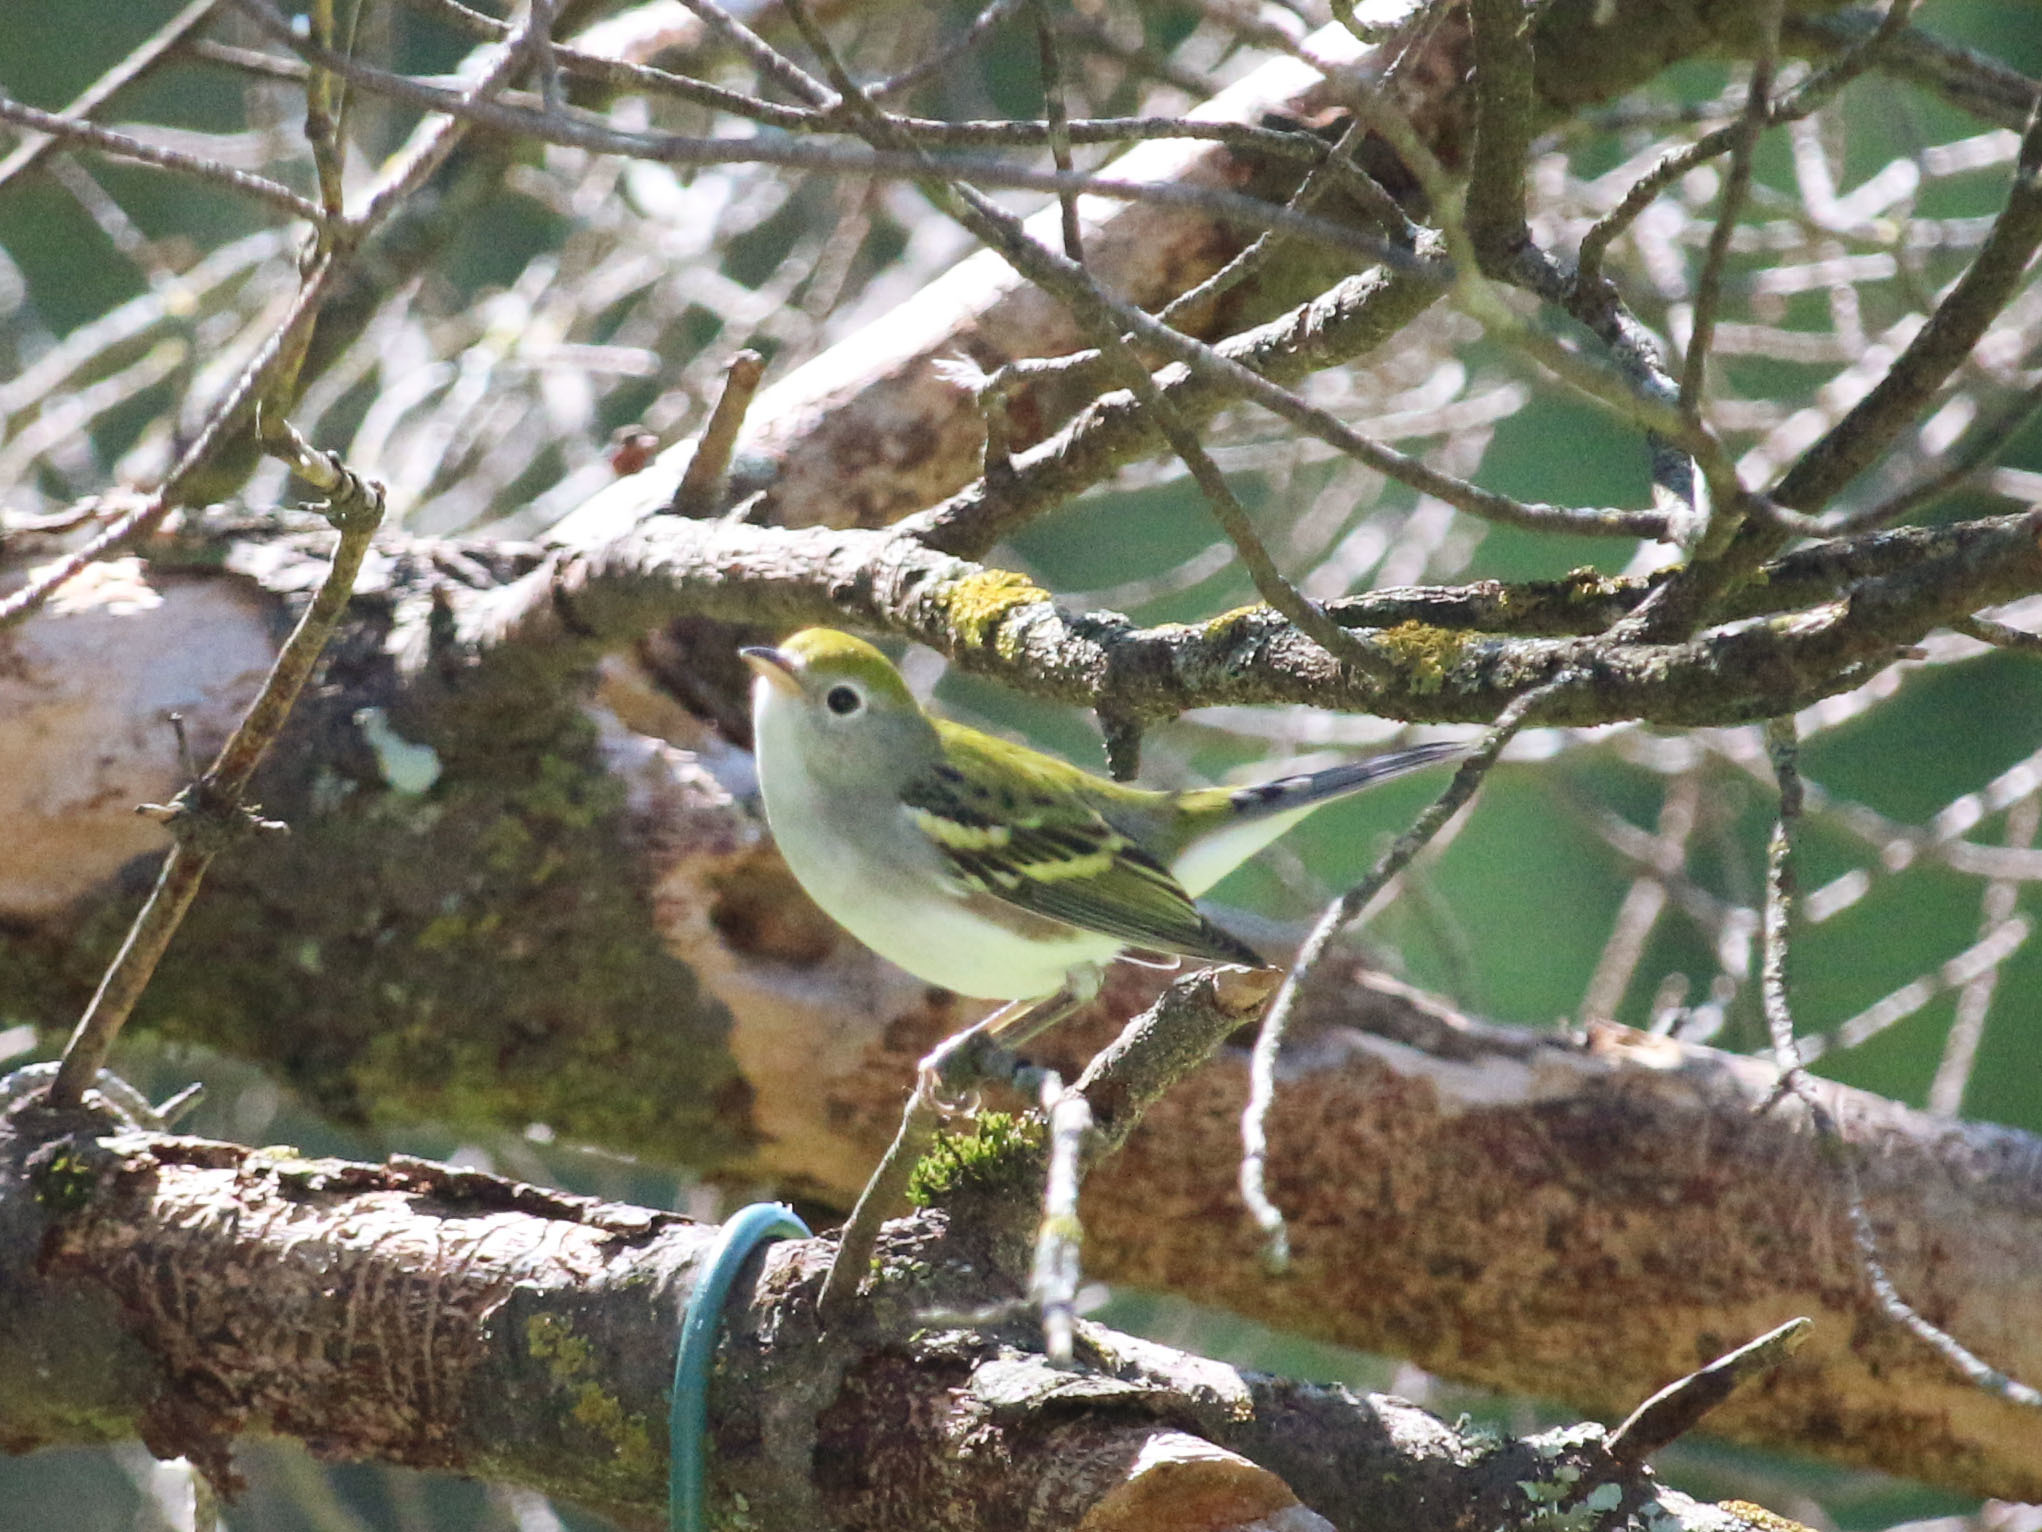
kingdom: Animalia
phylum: Chordata
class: Aves
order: Passeriformes
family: Parulidae
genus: Setophaga
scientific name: Setophaga pensylvanica
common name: Chestnut-sided warbler
